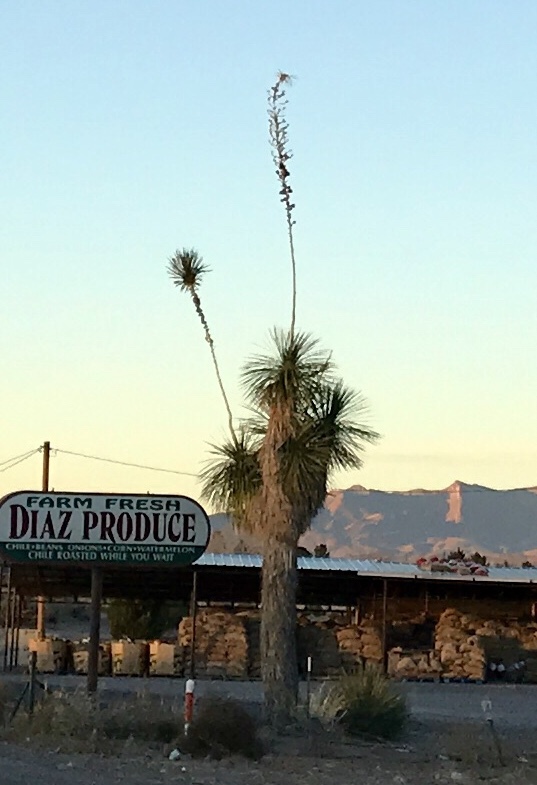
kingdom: Plantae
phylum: Tracheophyta
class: Liliopsida
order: Asparagales
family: Asparagaceae
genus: Yucca
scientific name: Yucca elata
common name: Palmella
